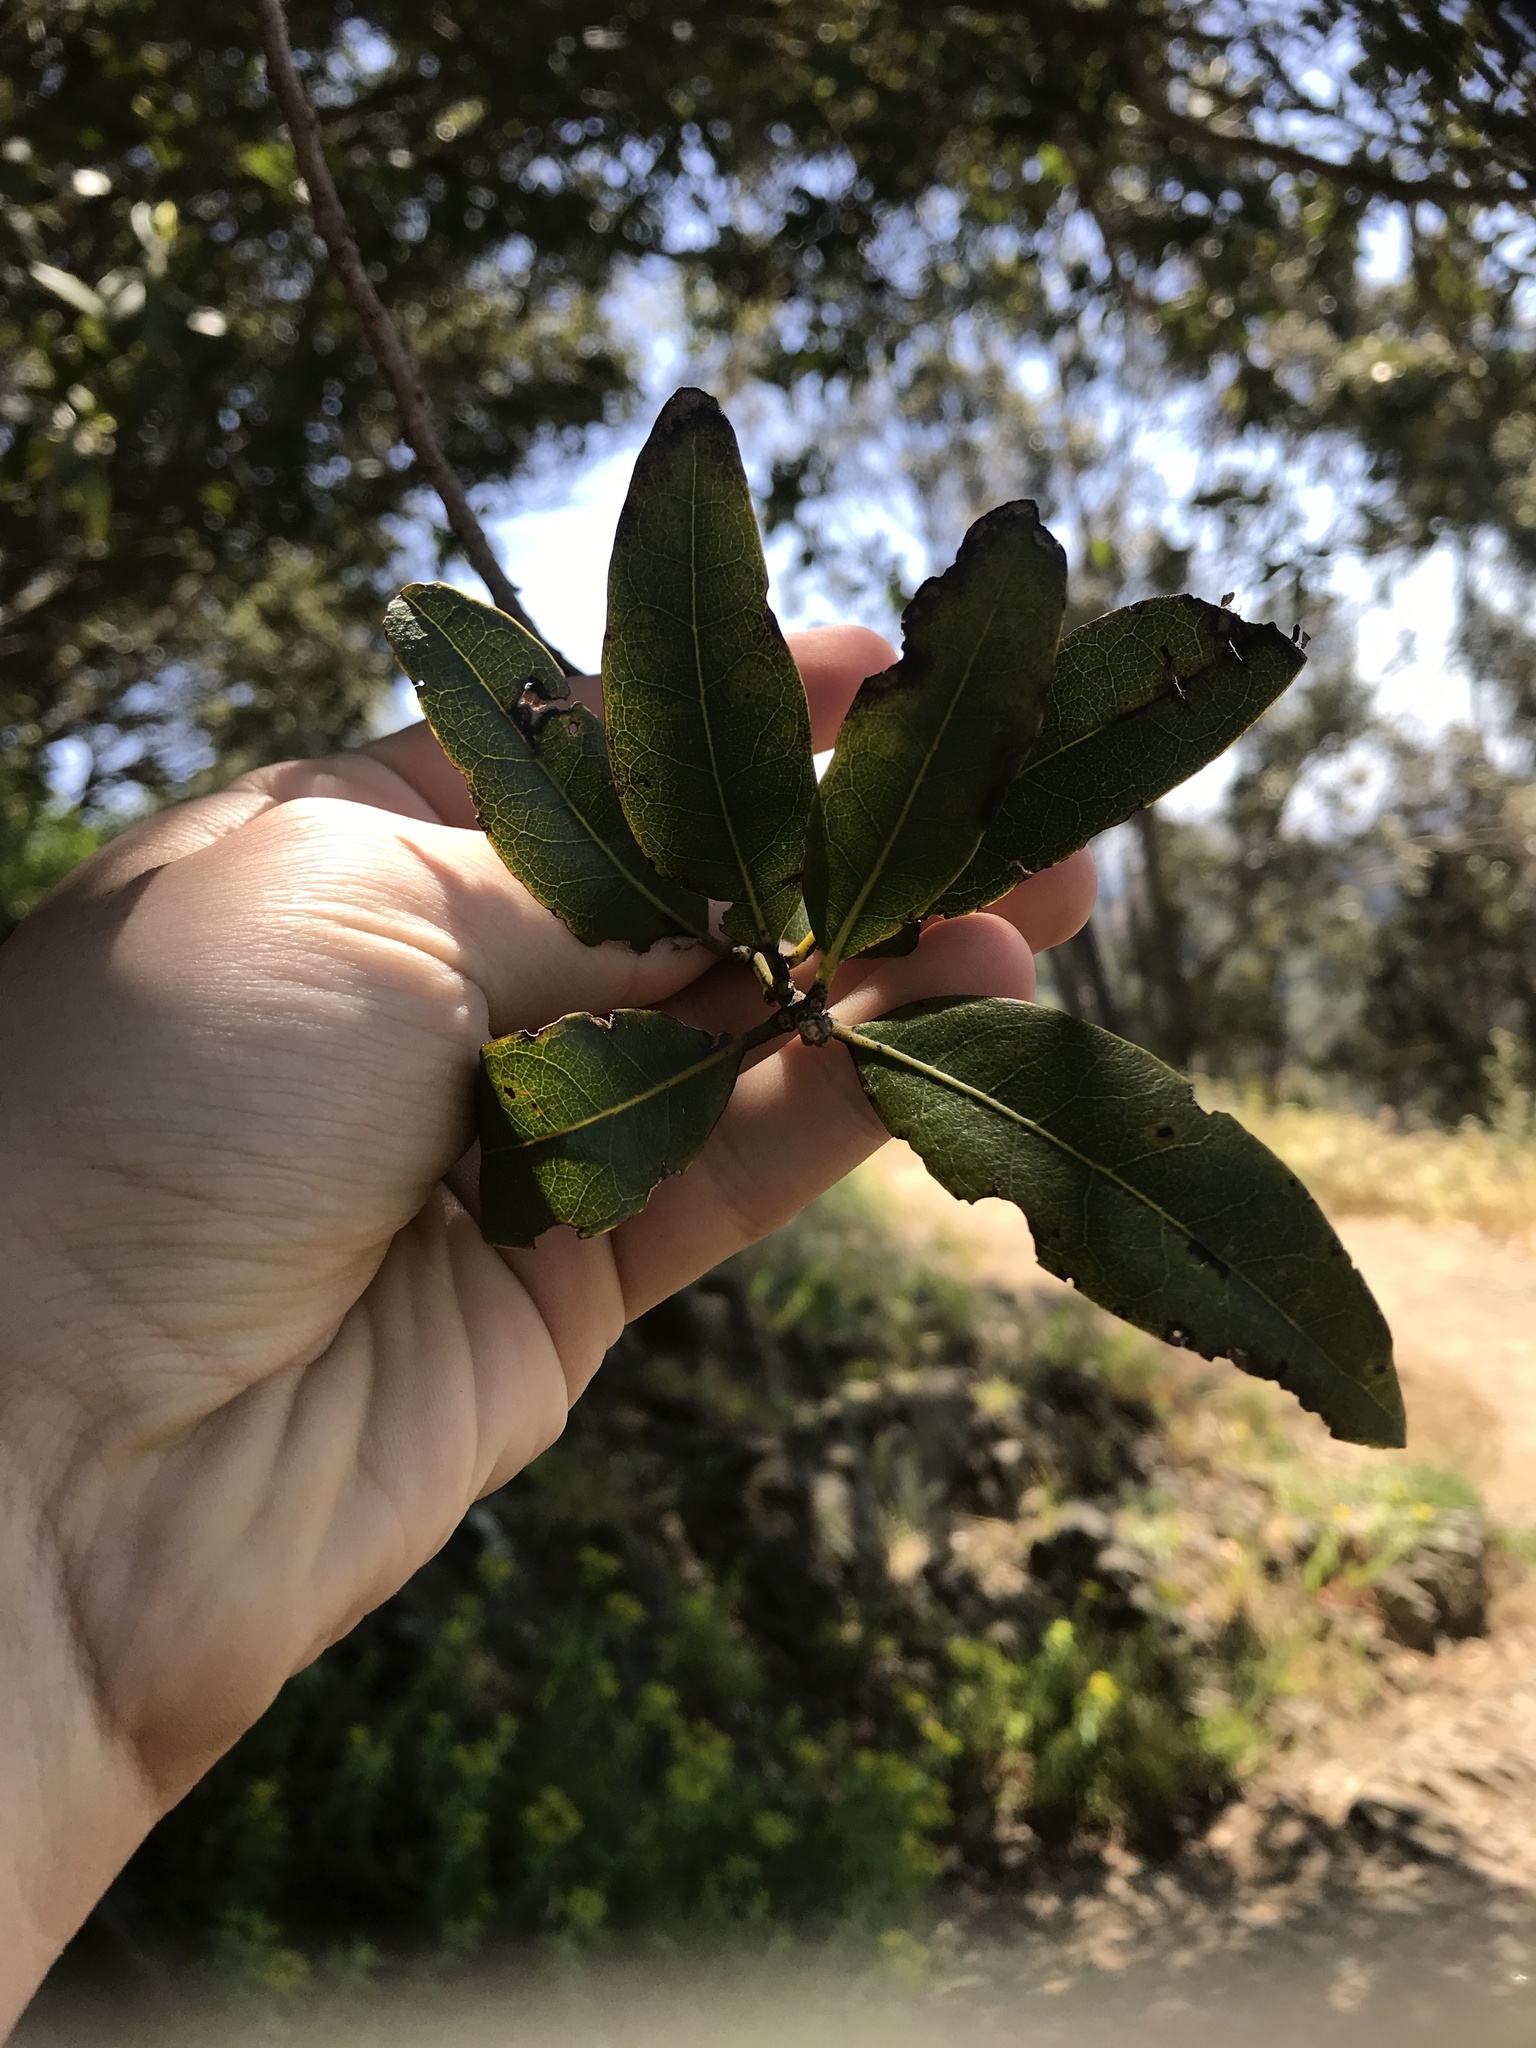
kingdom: Plantae
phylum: Tracheophyta
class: Magnoliopsida
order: Fagales
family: Fagaceae
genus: Quercus
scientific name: Quercus chrysolepis
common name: Canyon live oak
